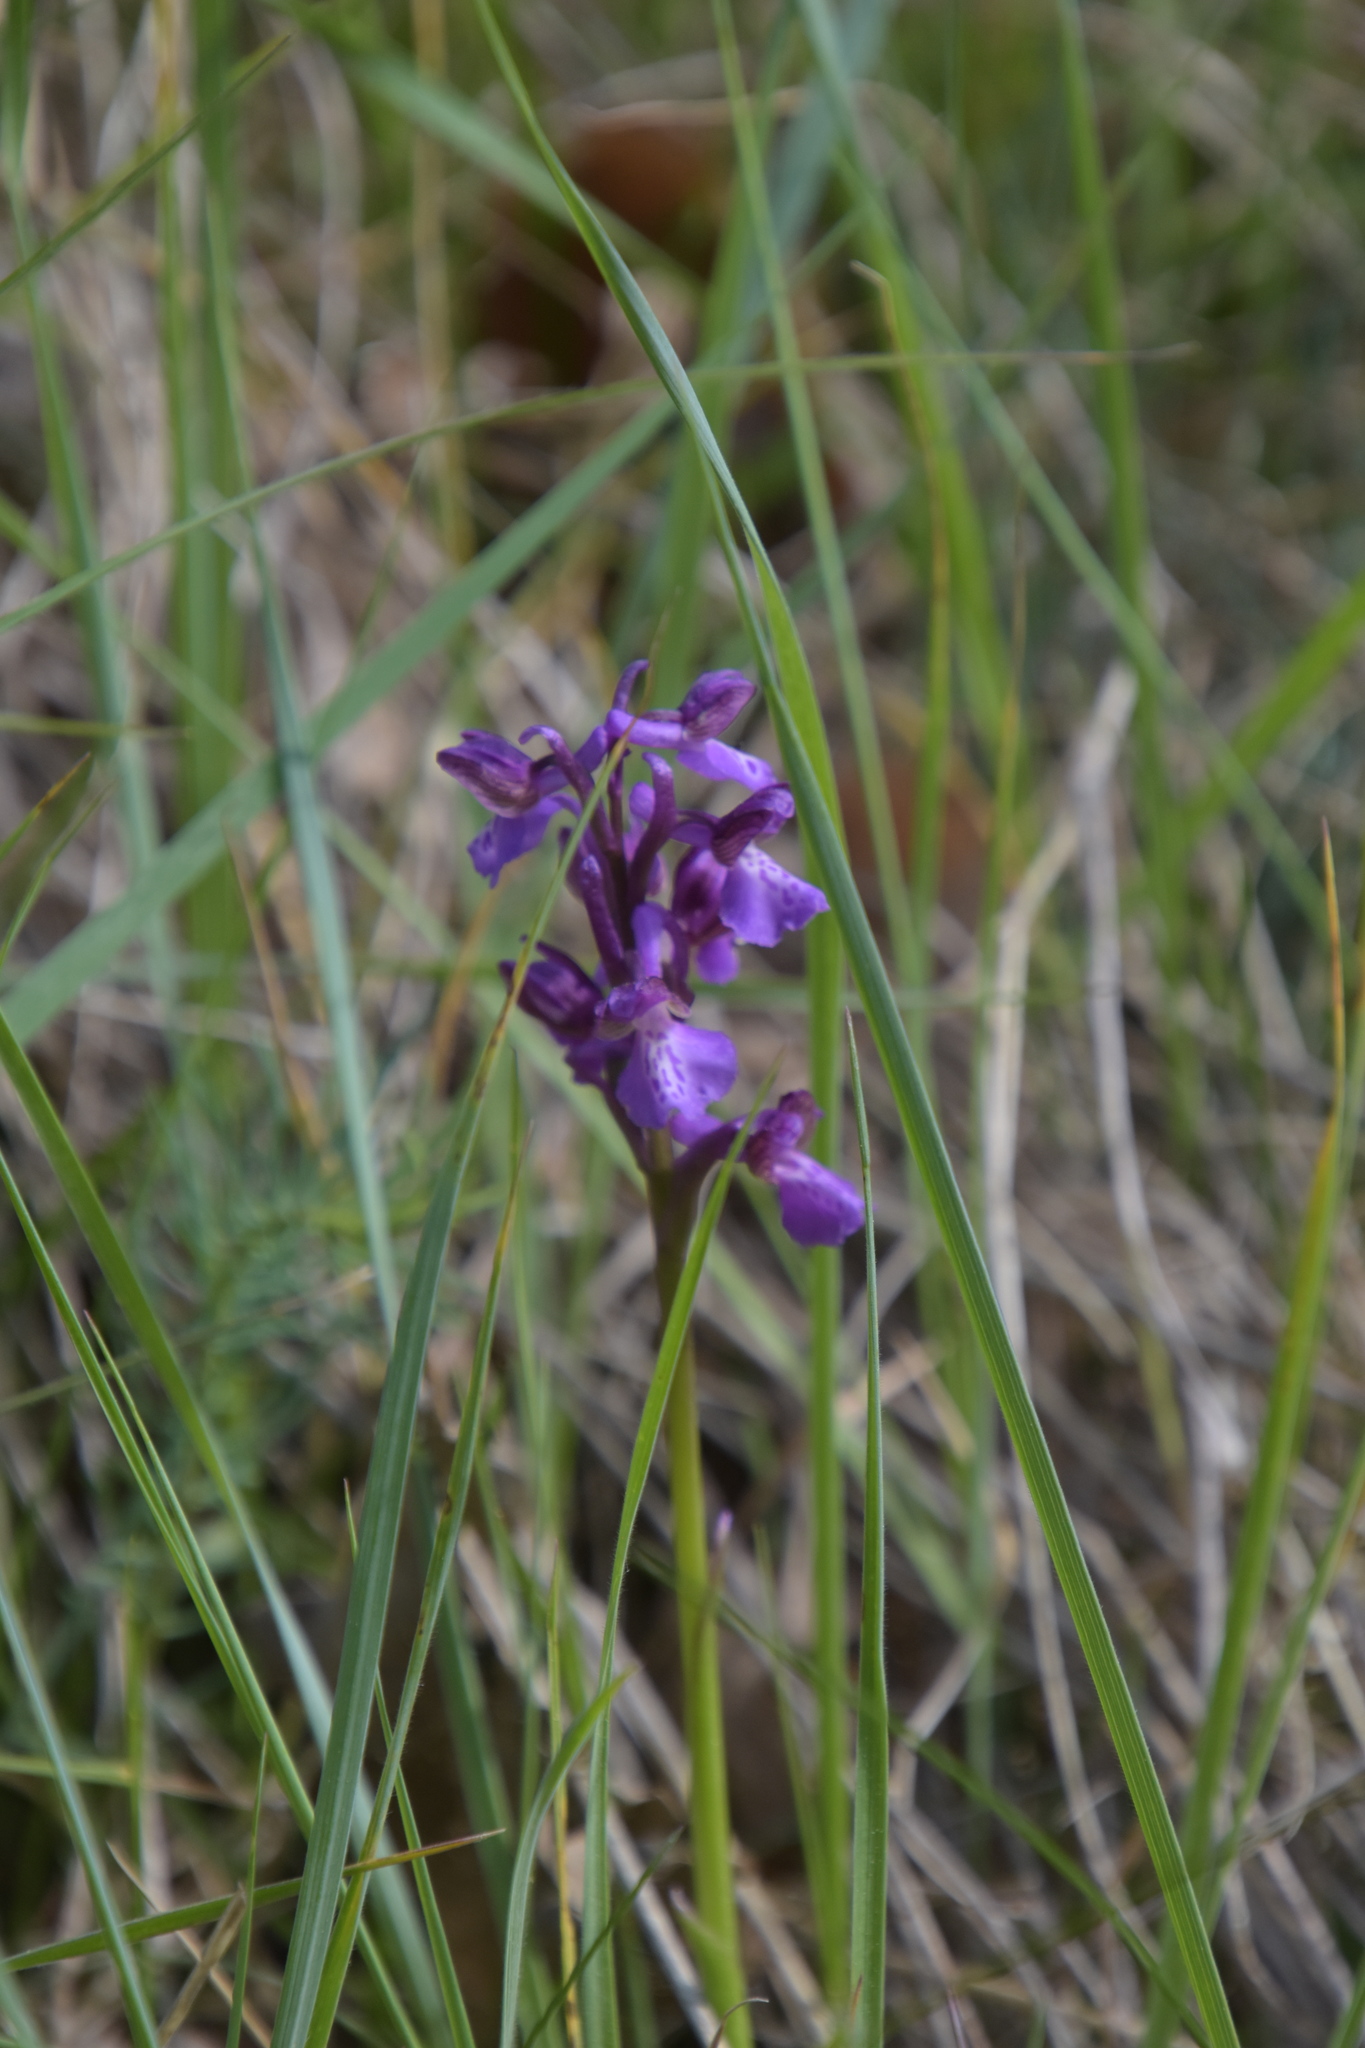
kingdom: Plantae
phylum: Tracheophyta
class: Liliopsida
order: Asparagales
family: Orchidaceae
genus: Anacamptis
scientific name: Anacamptis morio
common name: Green-winged orchid
